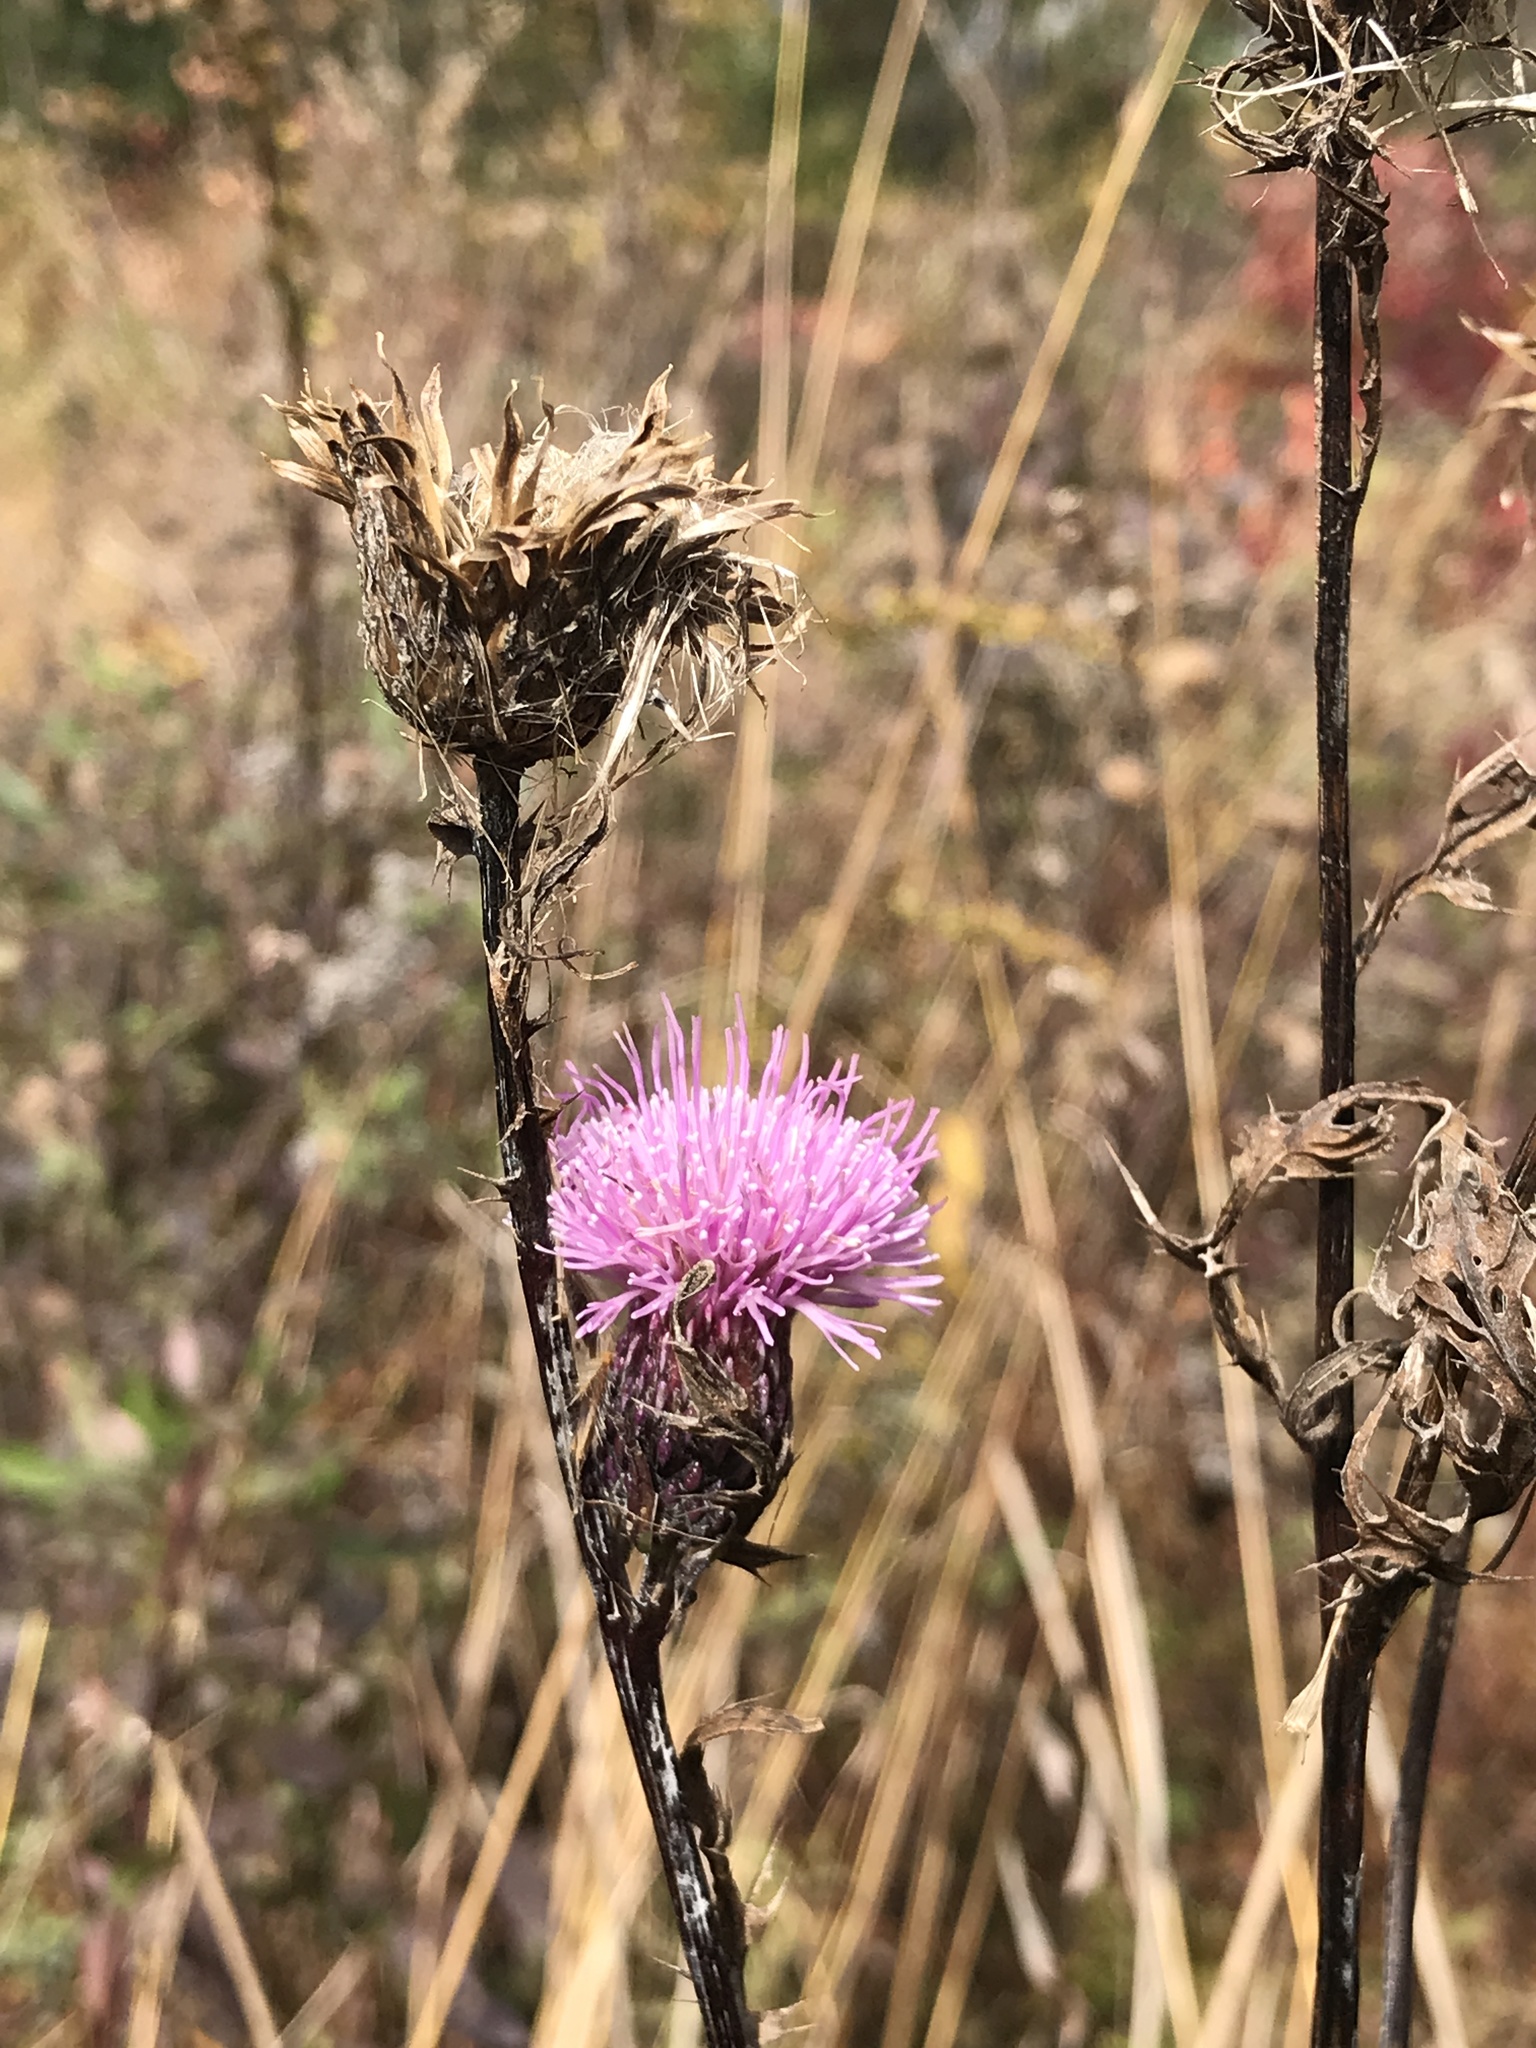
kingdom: Plantae
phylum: Tracheophyta
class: Magnoliopsida
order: Asterales
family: Asteraceae
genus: Cirsium
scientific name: Cirsium muticum
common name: Dunce-nettle
